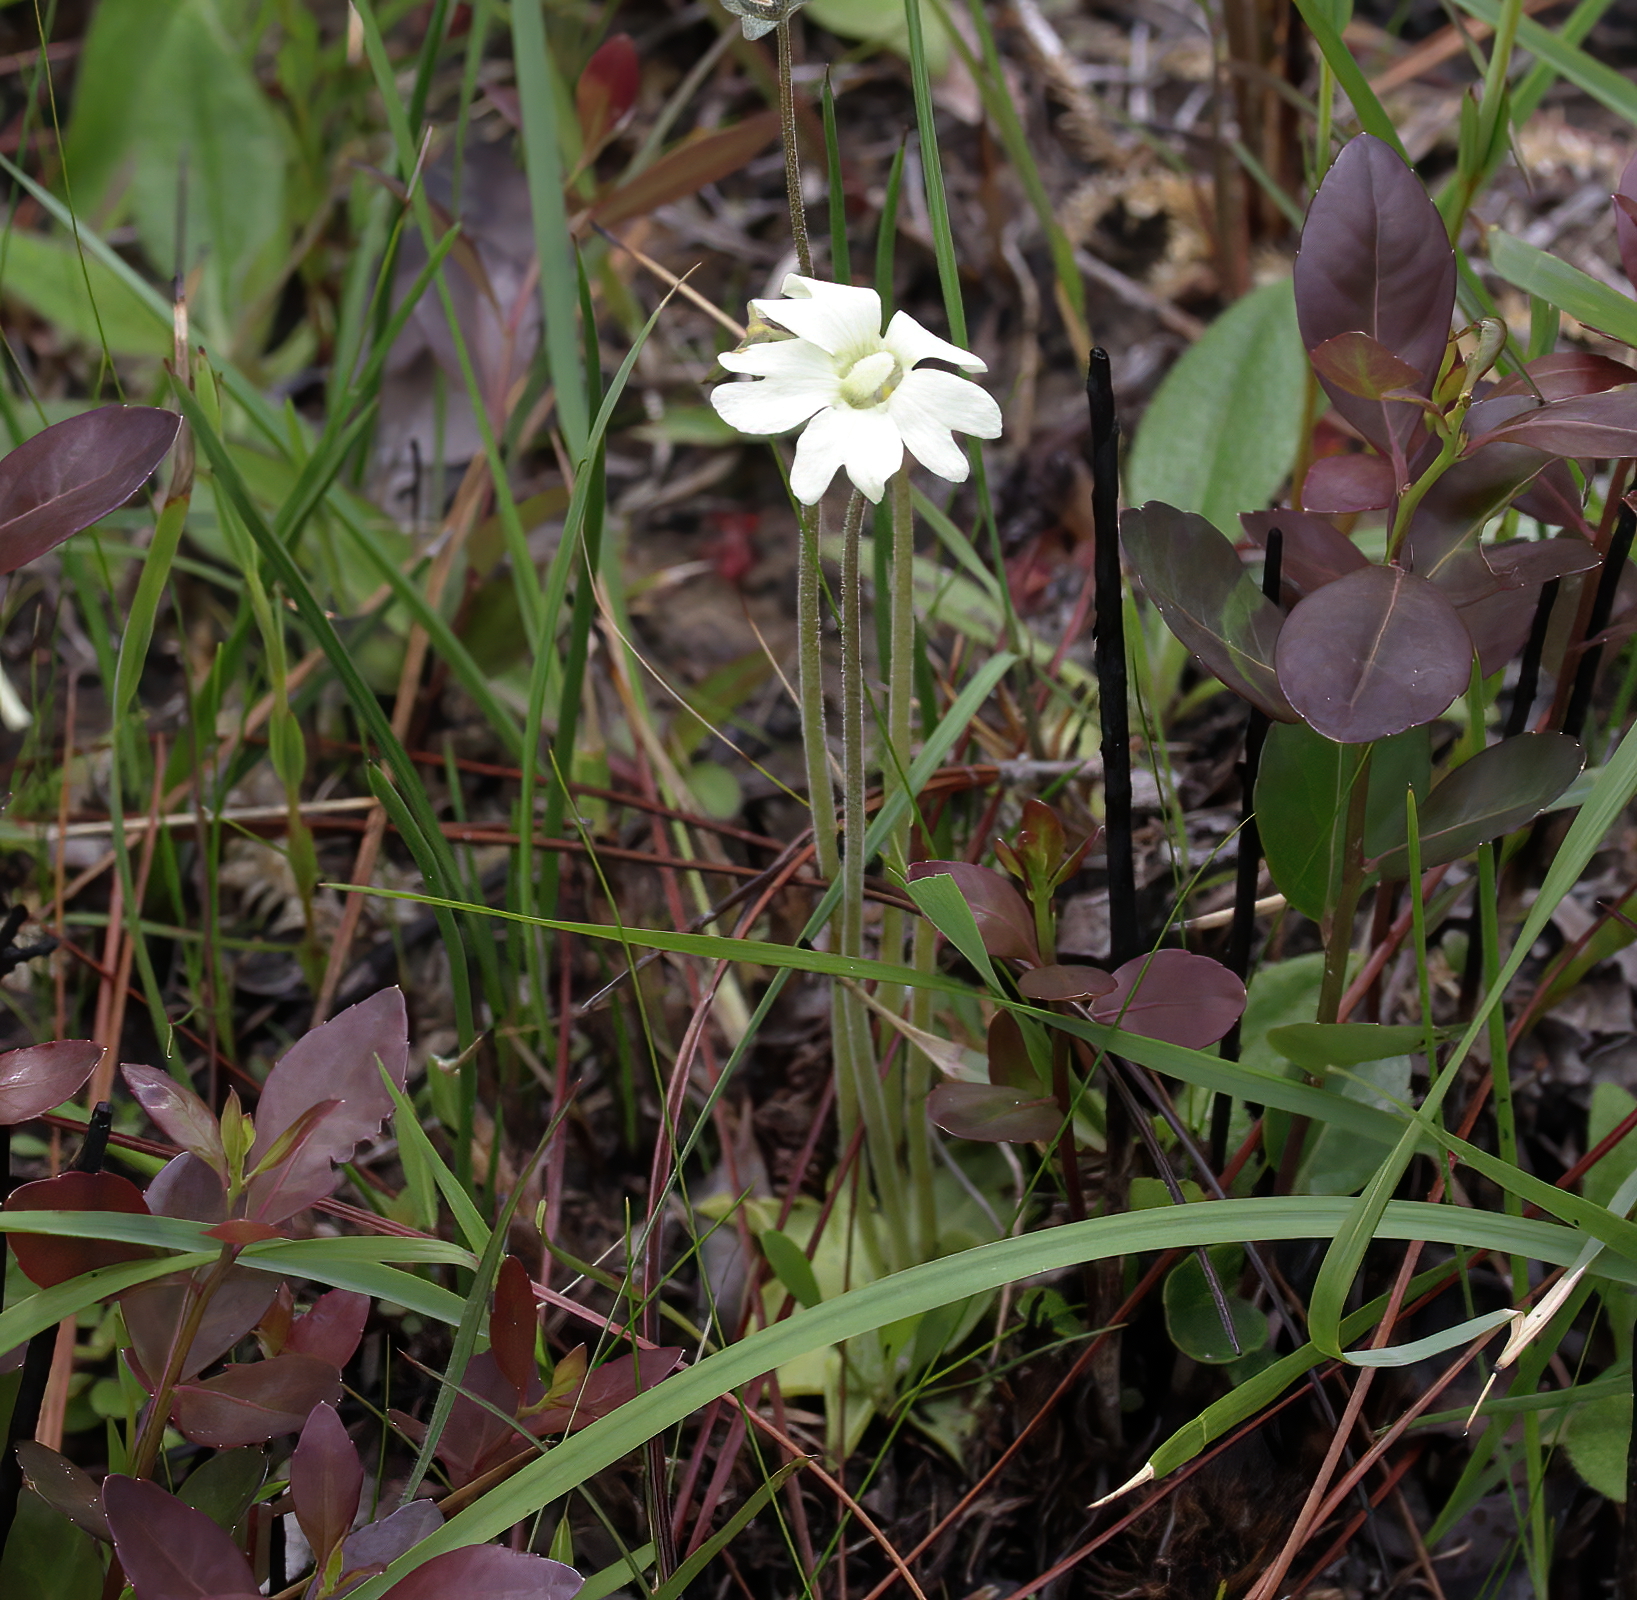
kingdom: Plantae
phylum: Tracheophyta
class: Magnoliopsida
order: Lamiales
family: Lentibulariaceae
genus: Pinguicula
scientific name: Pinguicula lutea
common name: Yellow butterwort
